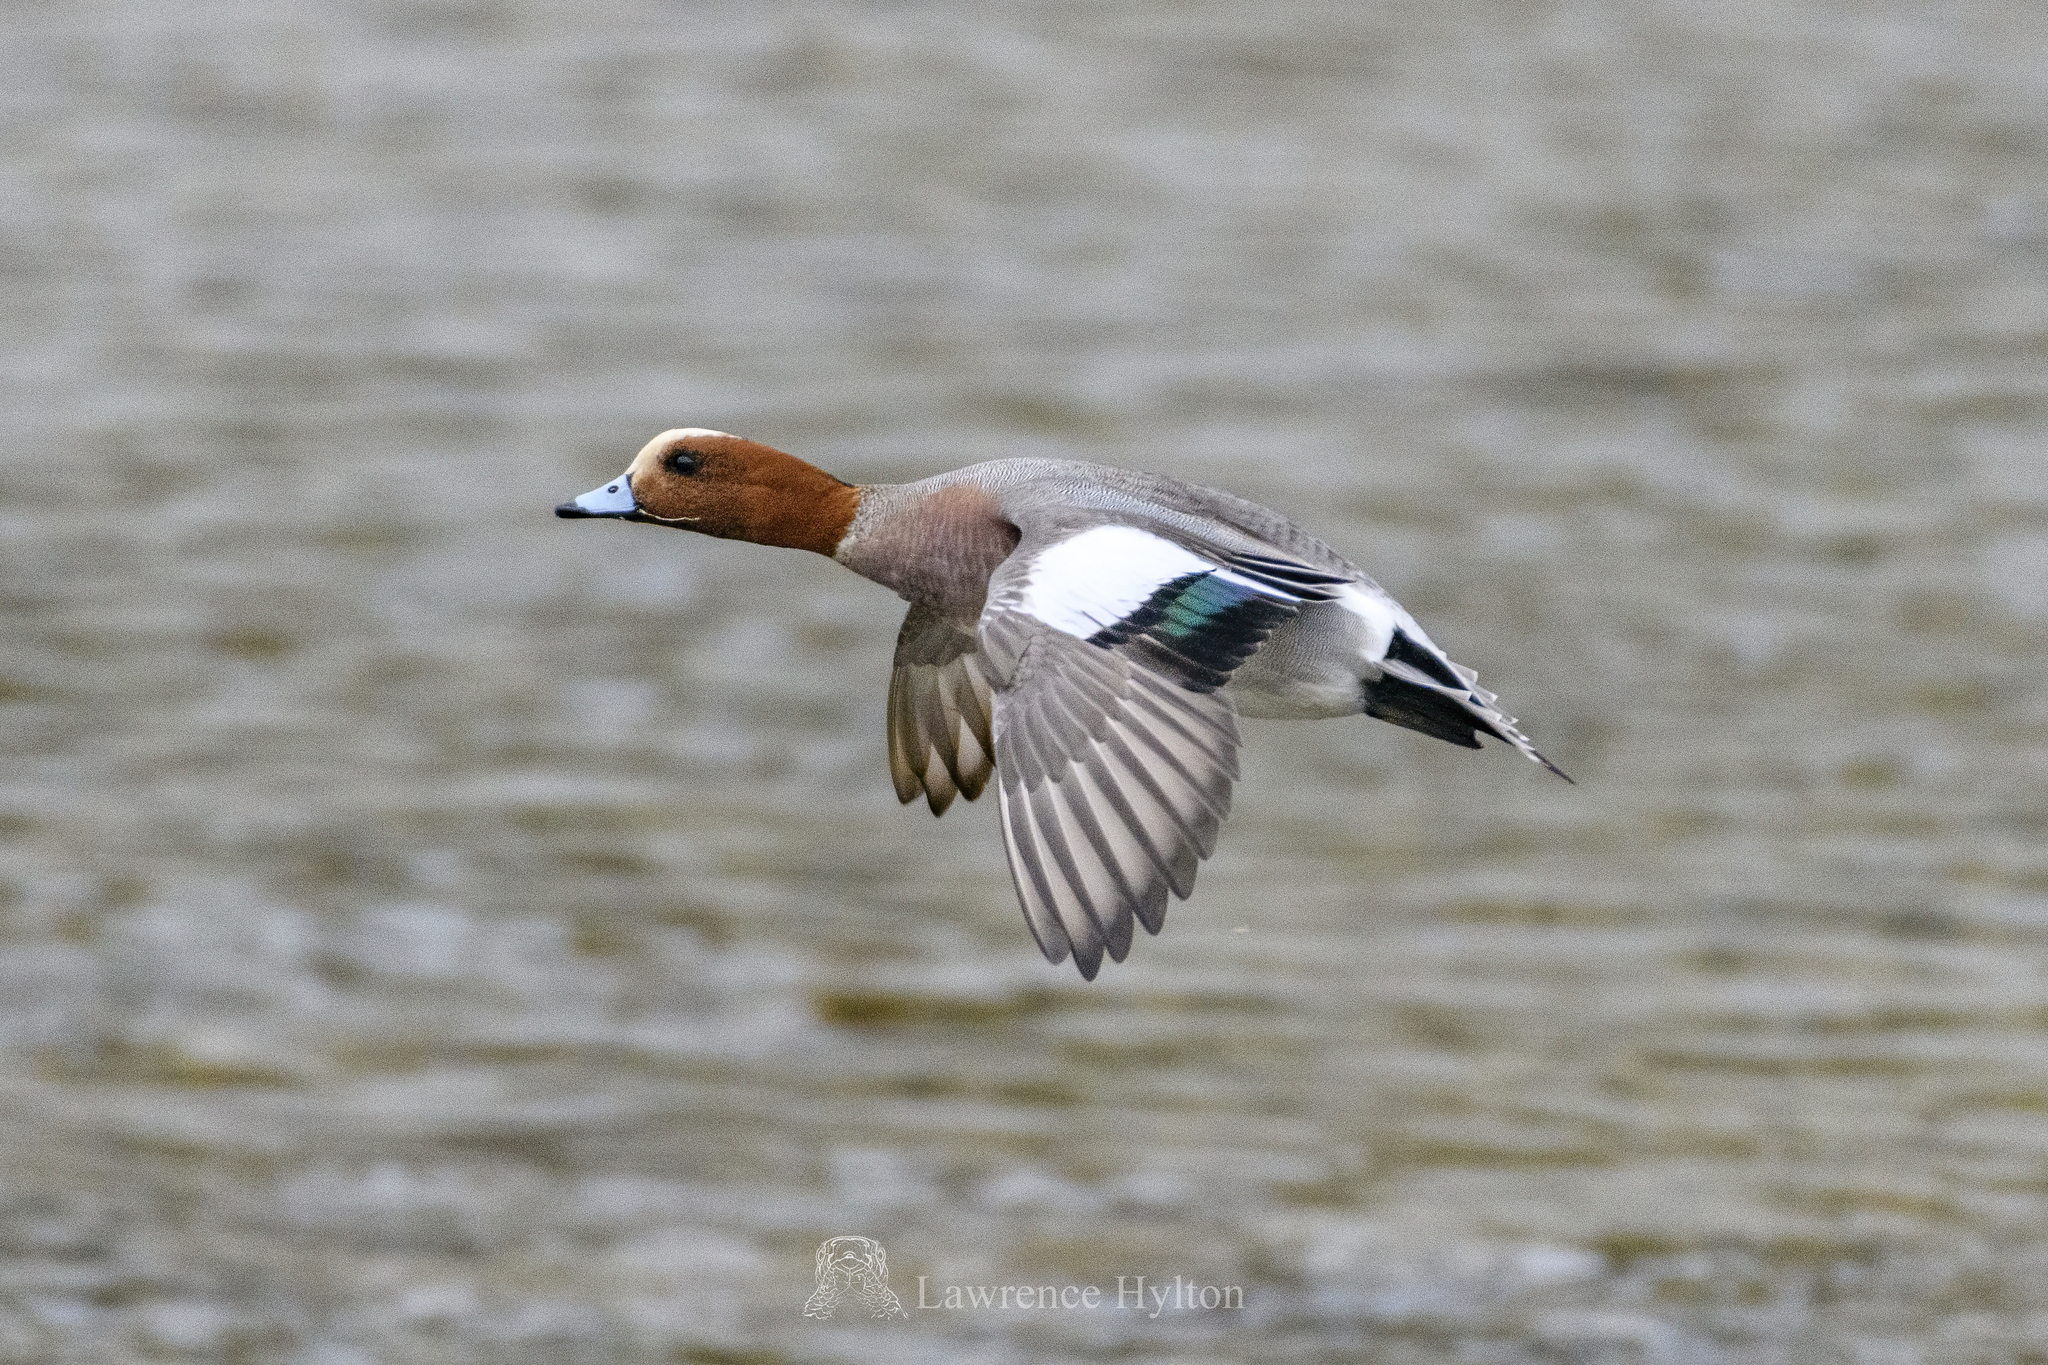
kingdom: Animalia
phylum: Chordata
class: Aves
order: Anseriformes
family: Anatidae
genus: Mareca
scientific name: Mareca penelope
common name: Eurasian wigeon
